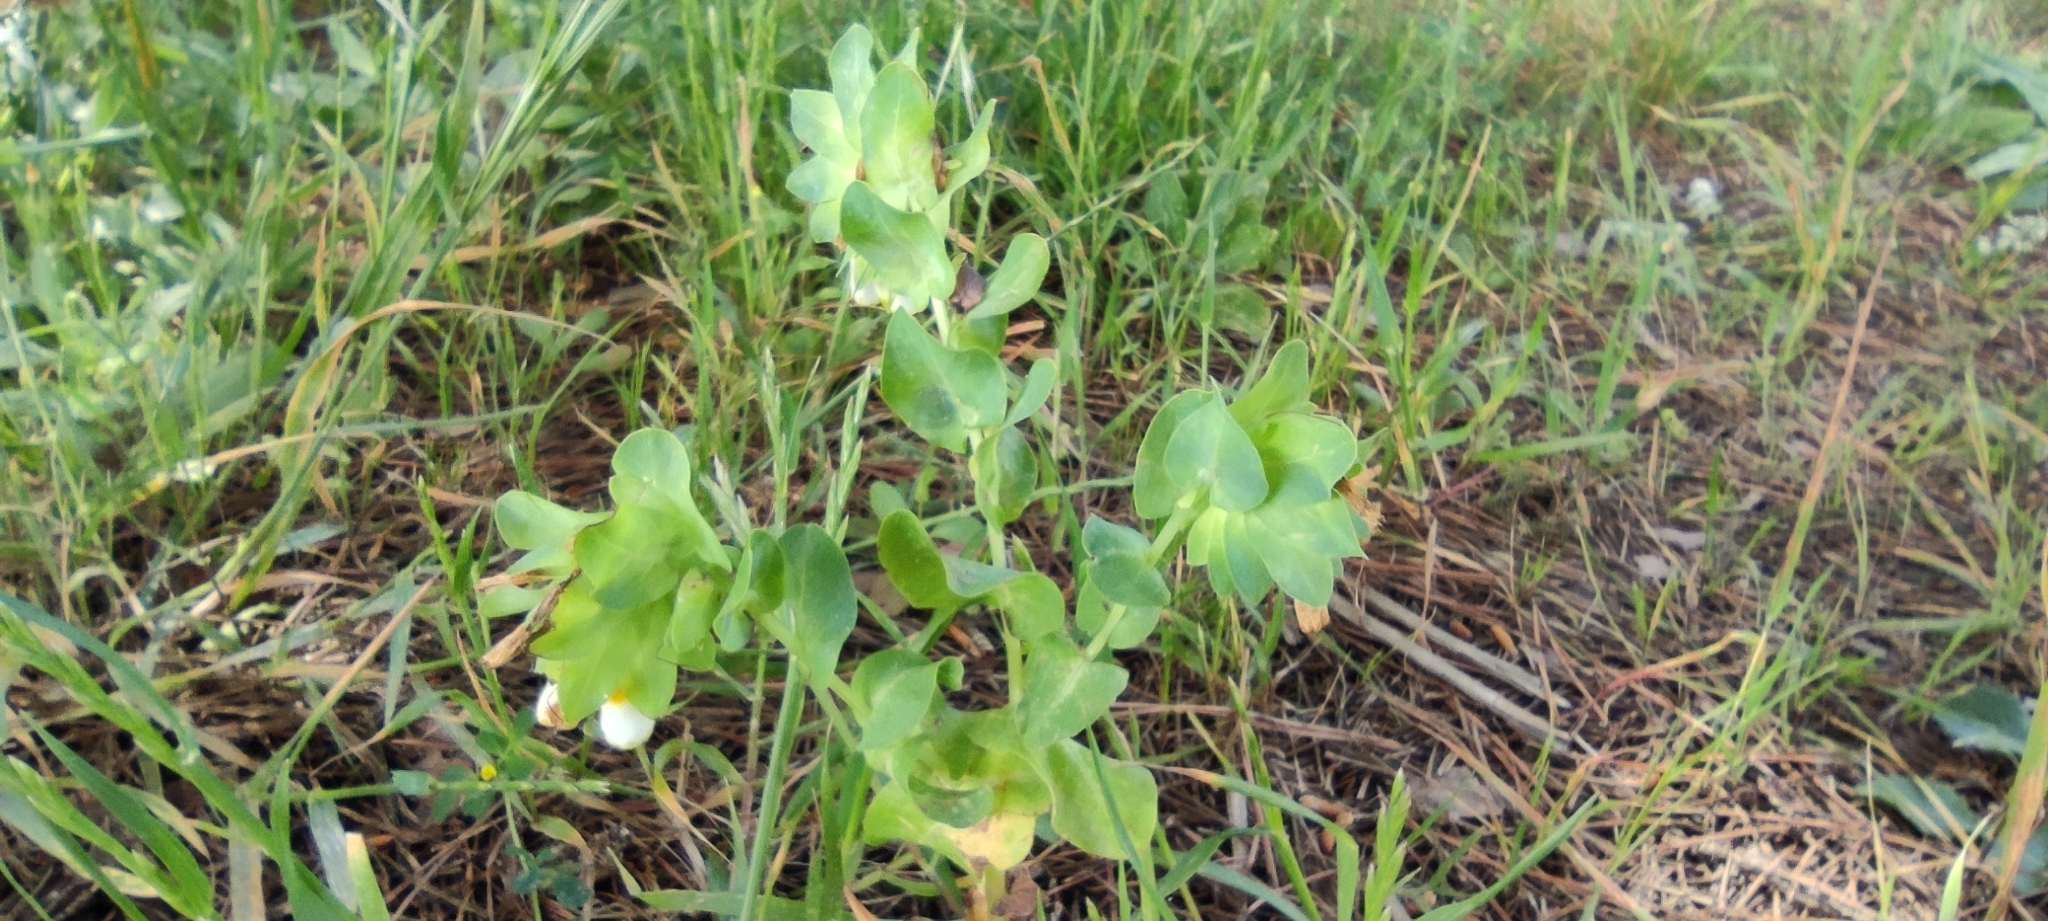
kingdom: Plantae
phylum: Tracheophyta
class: Magnoliopsida
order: Boraginales
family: Boraginaceae
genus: Cerinthe
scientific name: Cerinthe major
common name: Greater honeywort
